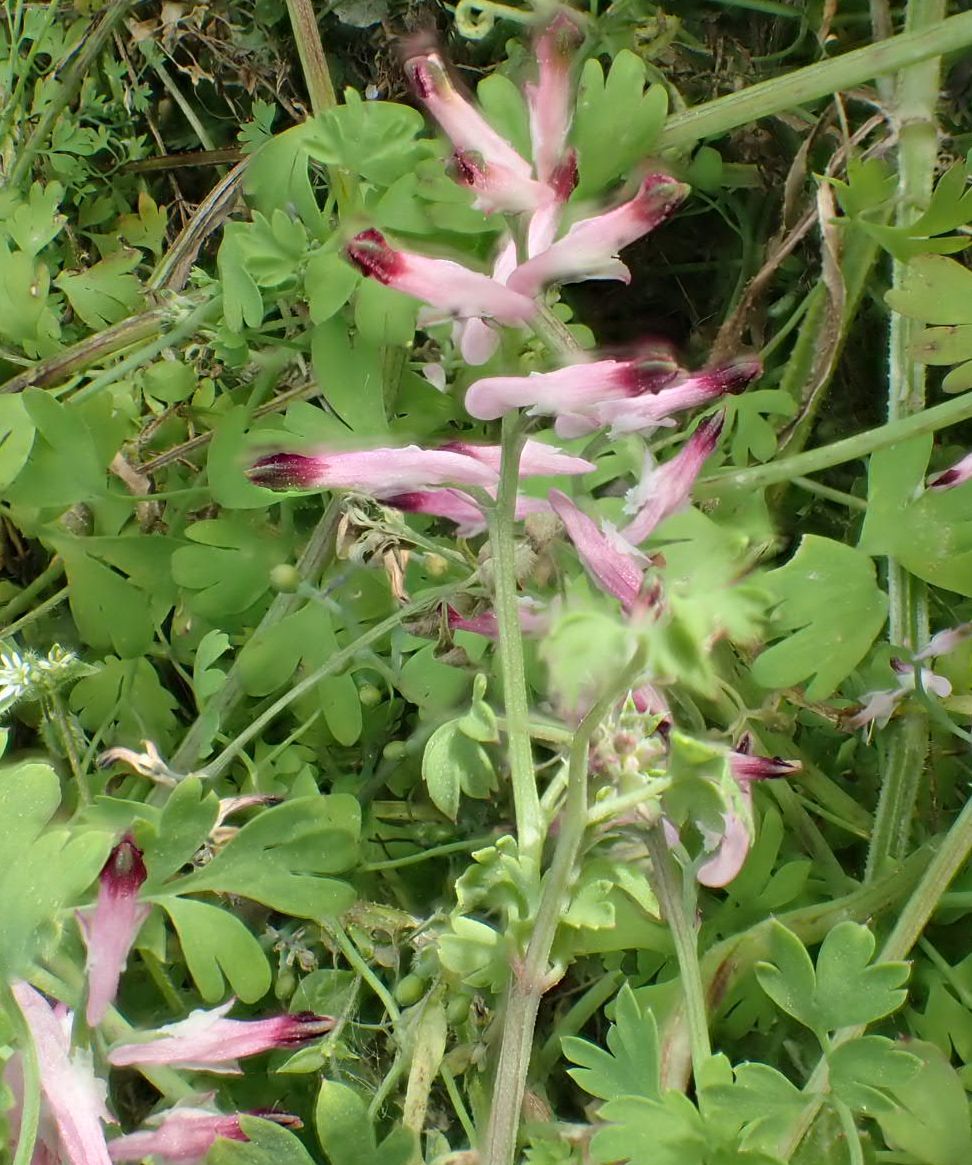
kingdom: Plantae
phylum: Tracheophyta
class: Magnoliopsida
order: Ranunculales
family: Papaveraceae
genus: Fumaria
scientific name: Fumaria muralis
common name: Common ramping-fumitory
